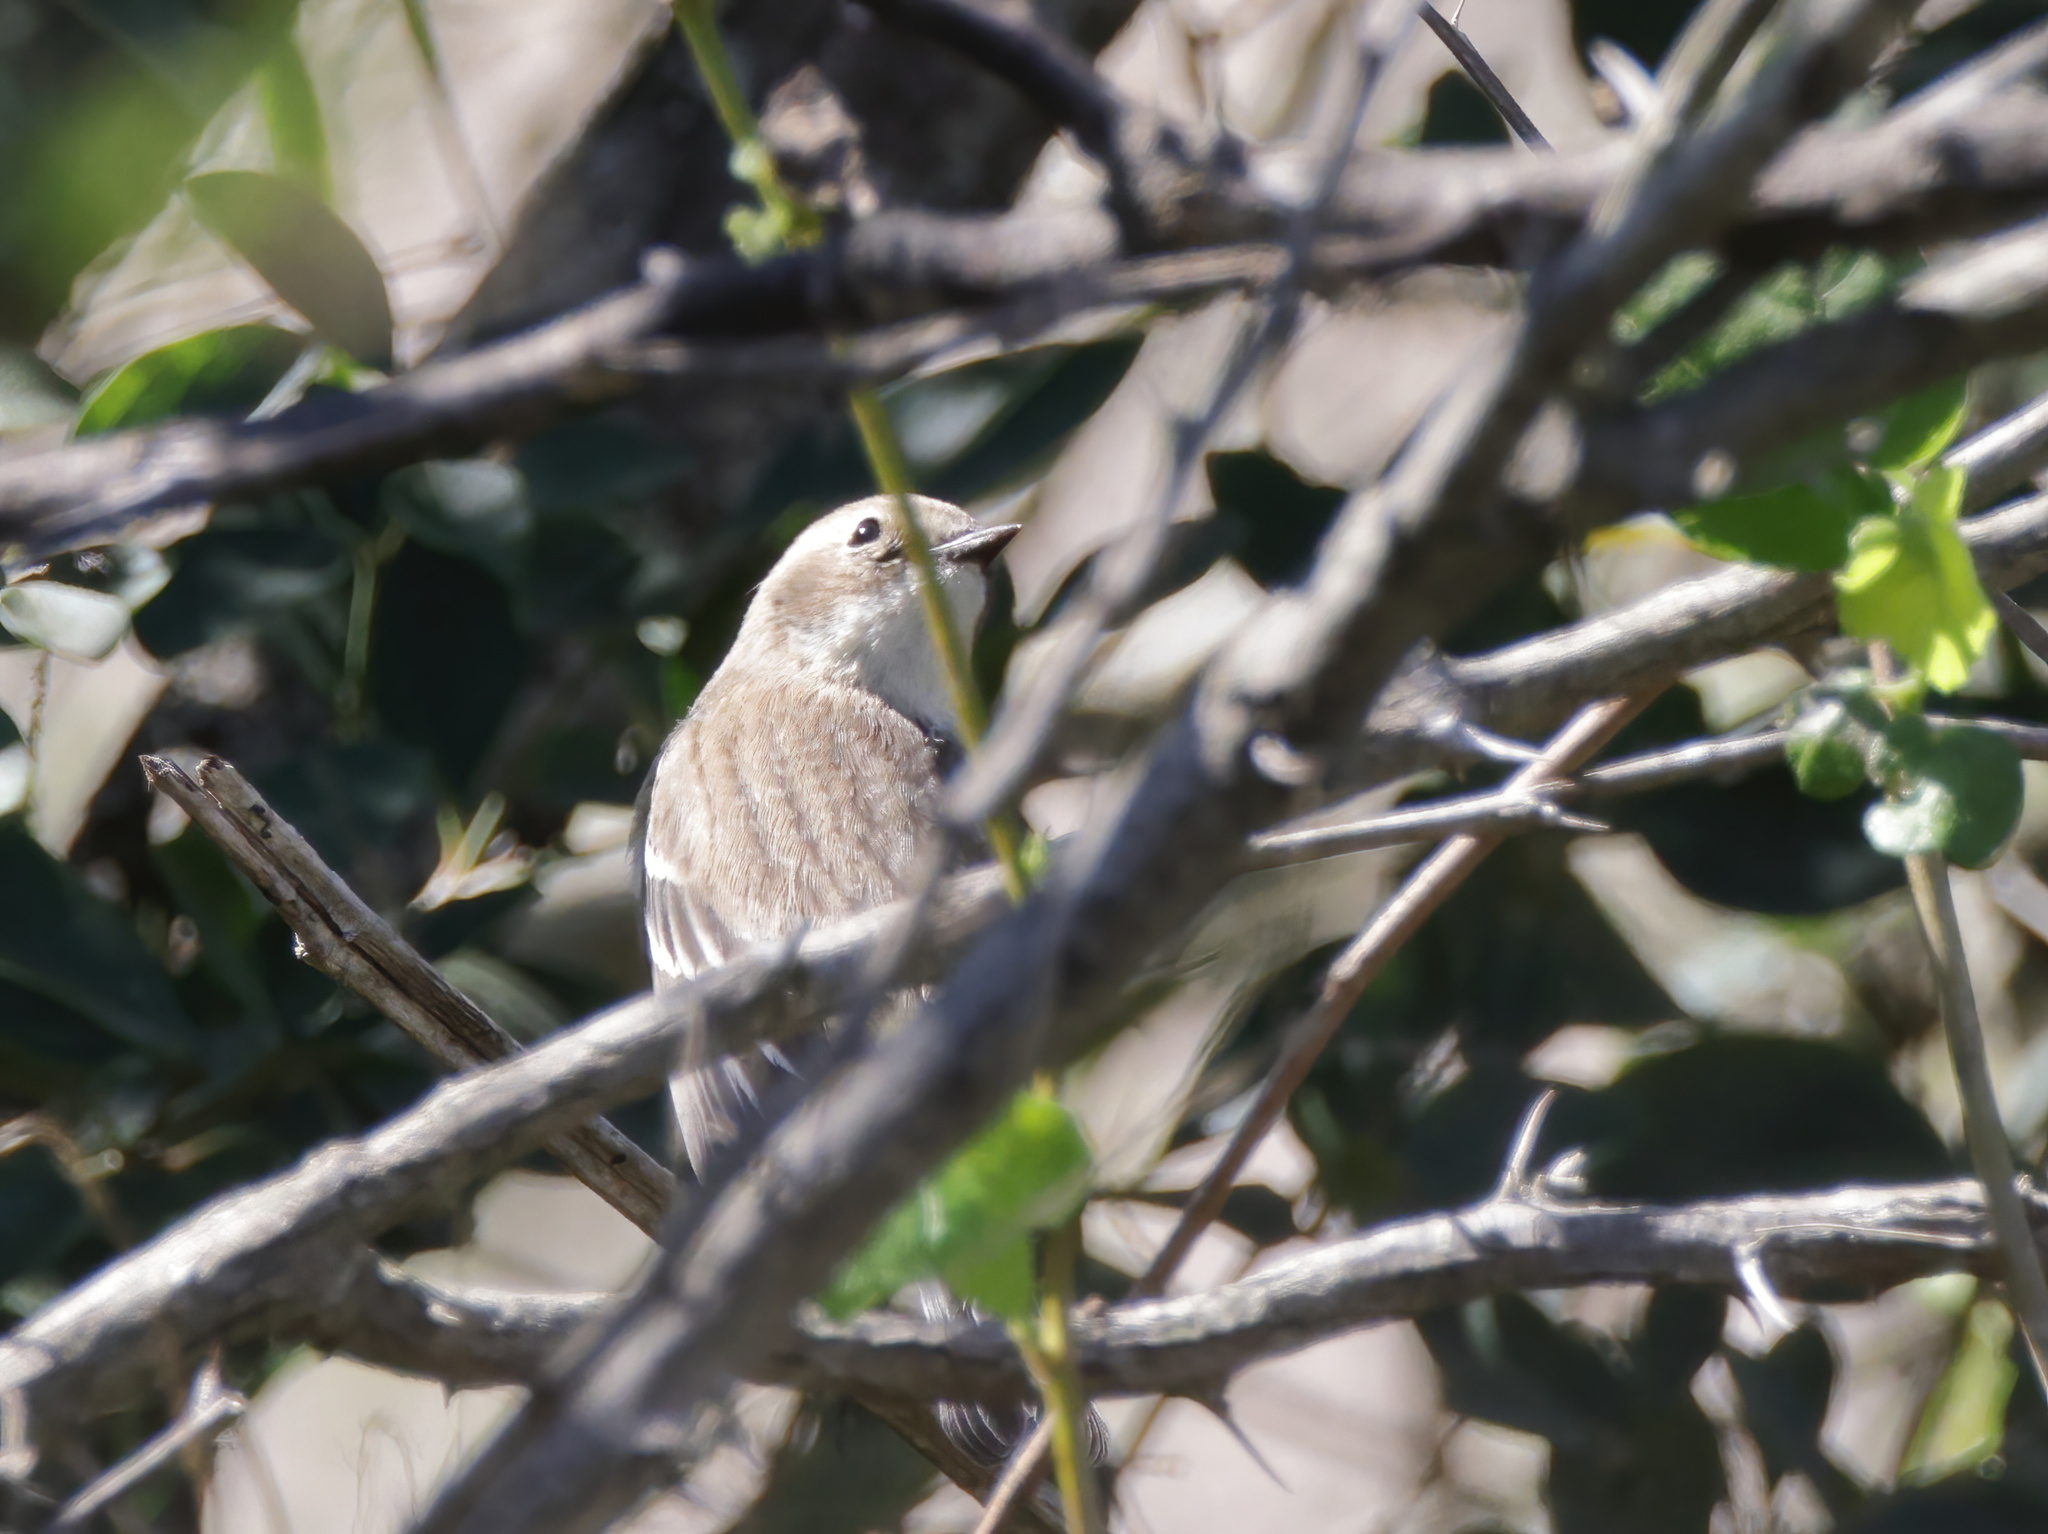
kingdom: Animalia
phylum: Chordata
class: Aves
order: Passeriformes
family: Parulidae
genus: Setophaga
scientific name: Setophaga coronata
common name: Myrtle warbler
